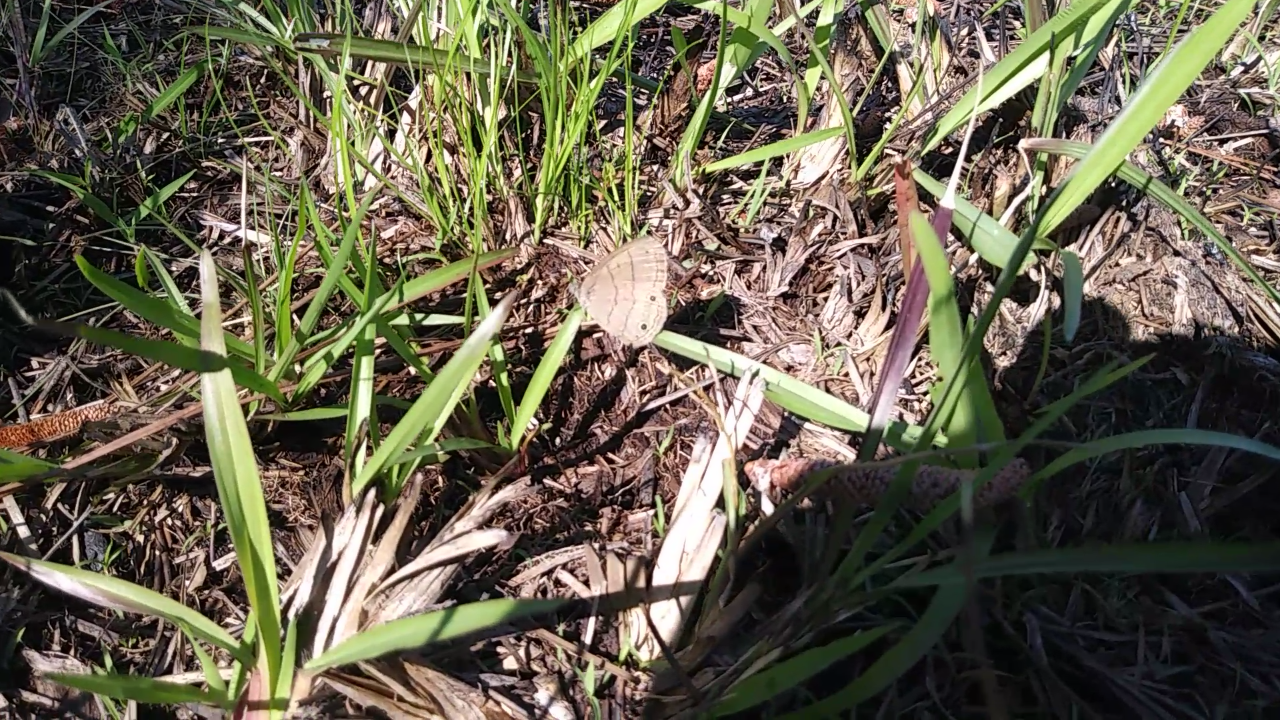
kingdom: Animalia
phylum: Arthropoda
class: Insecta
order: Lepidoptera
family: Nymphalidae
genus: Hermeuptychia
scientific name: Hermeuptychia hermes
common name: Hermes satyr
